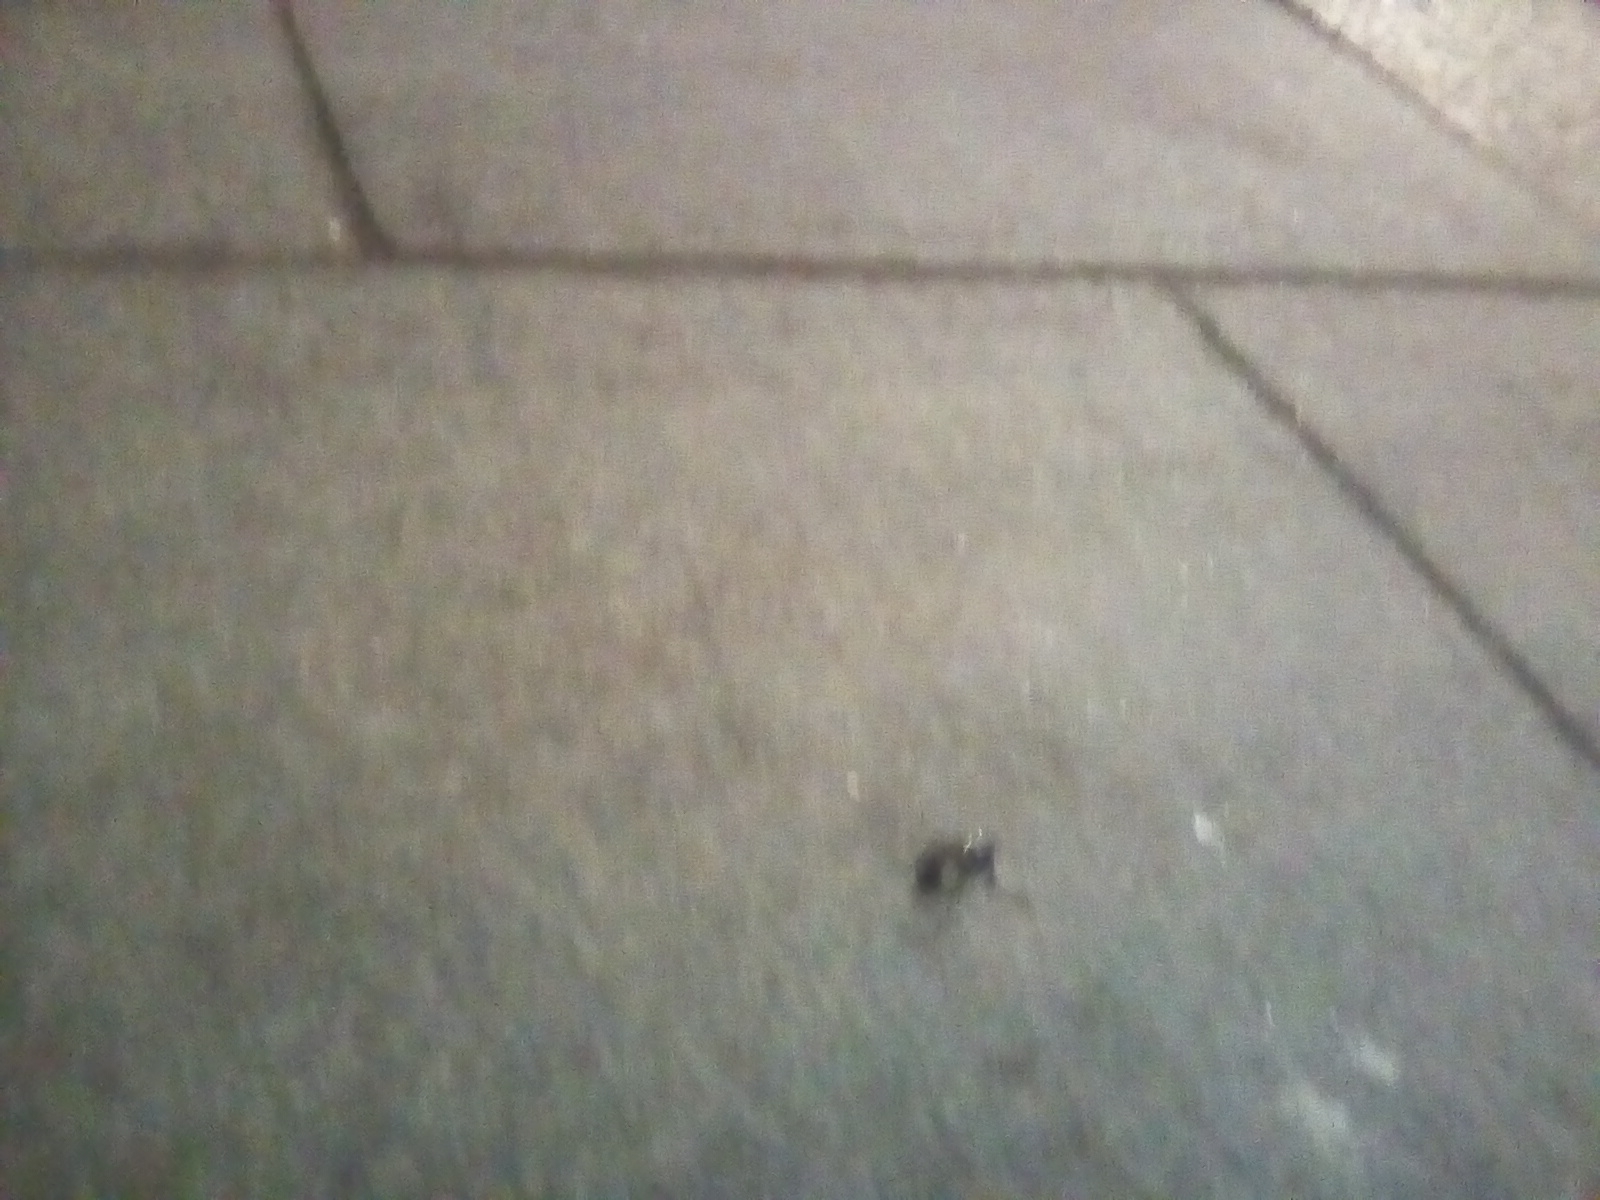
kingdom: Animalia
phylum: Arthropoda
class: Insecta
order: Coleoptera
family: Carabidae
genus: Carabus
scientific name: Carabus
